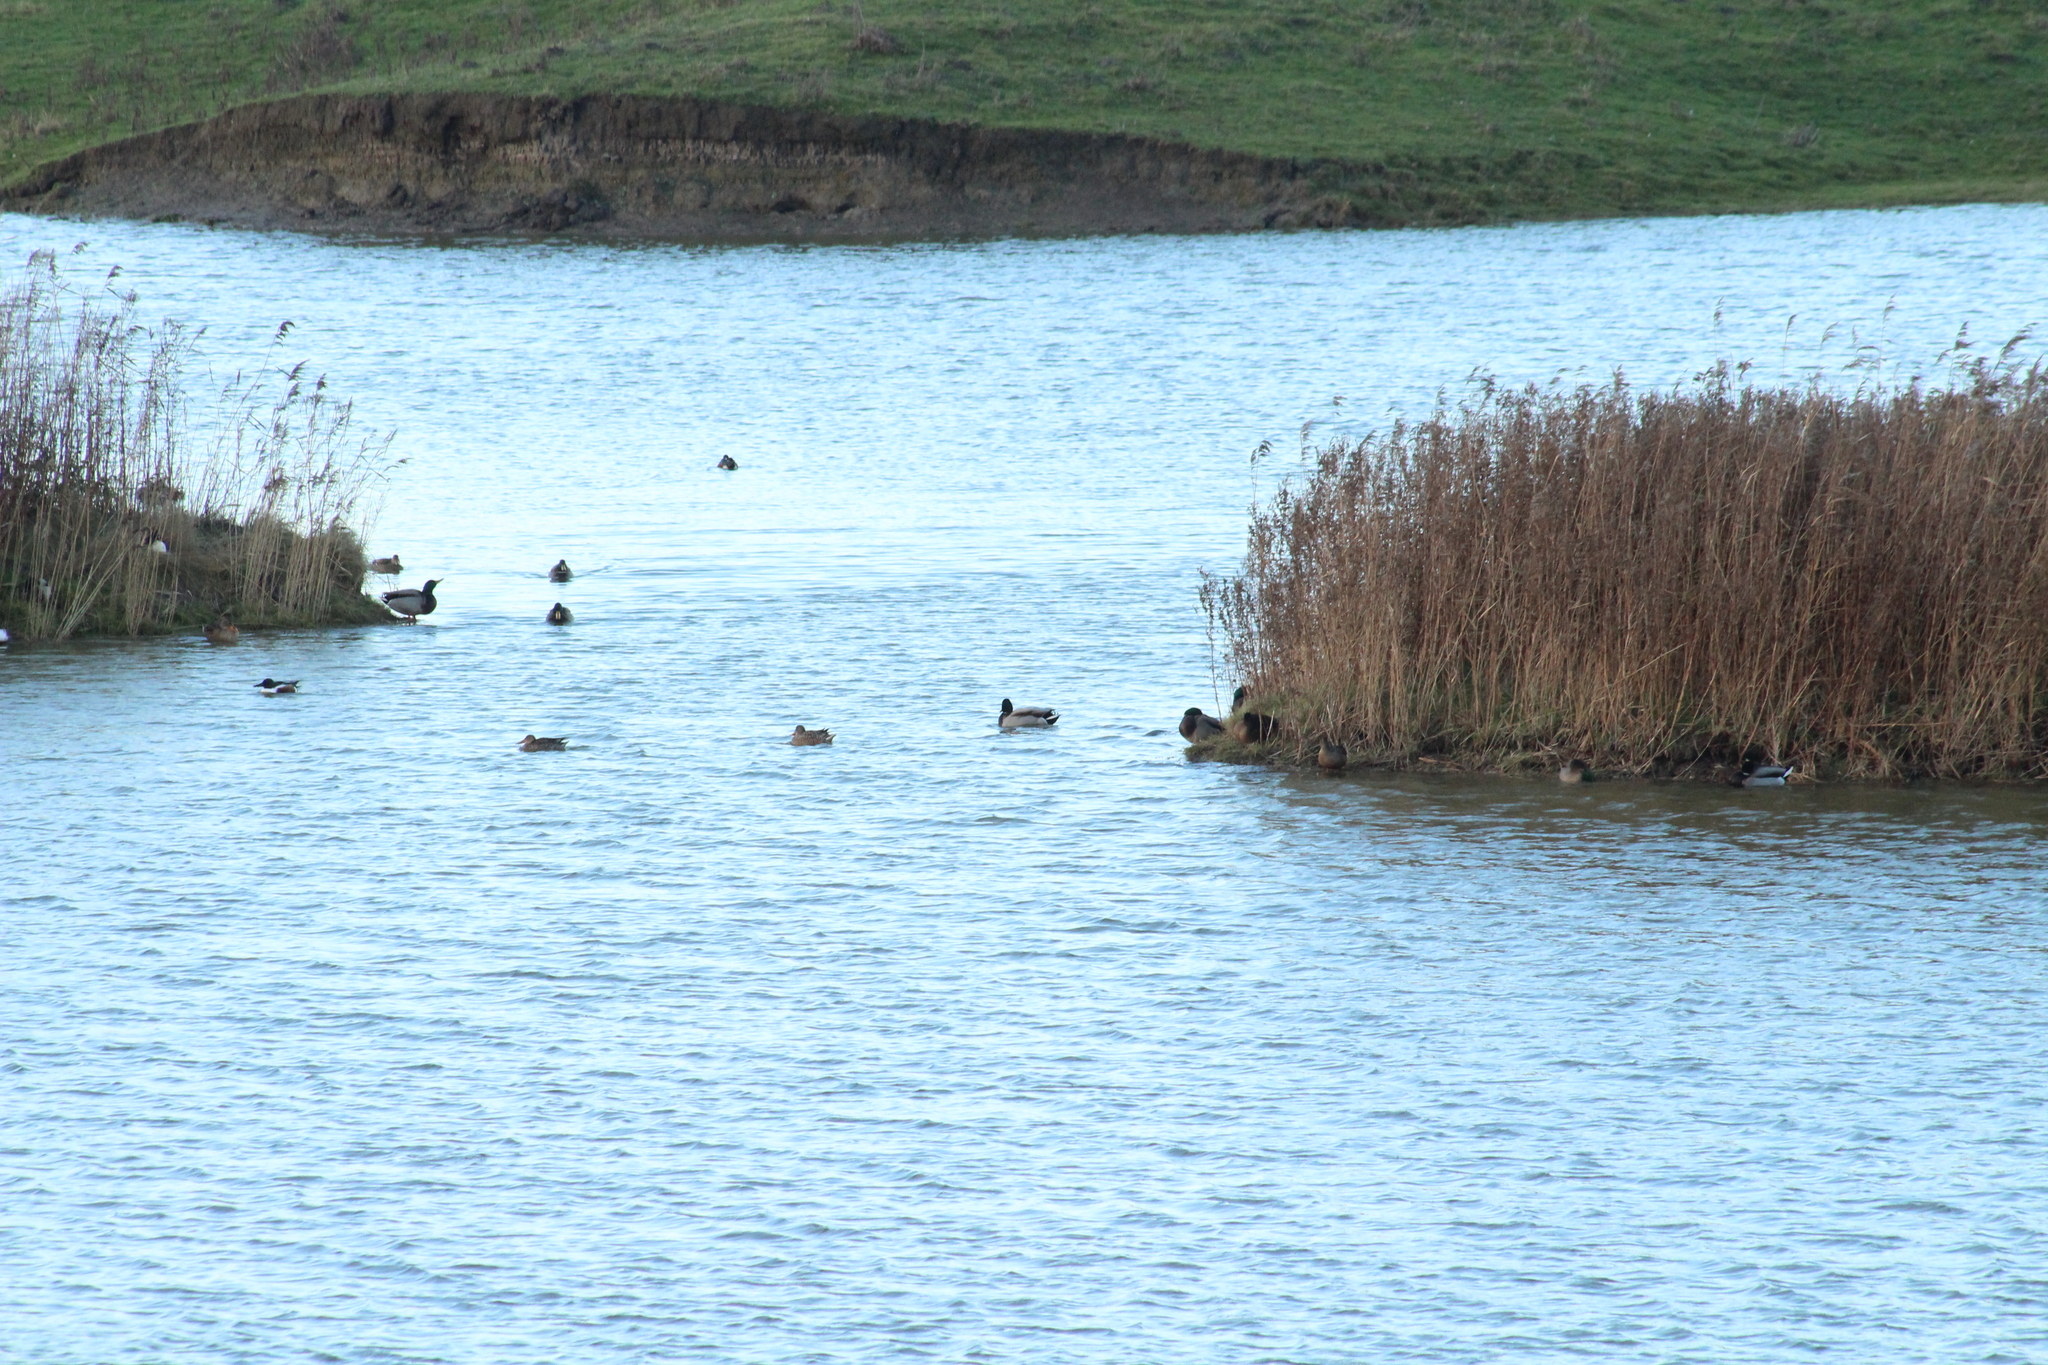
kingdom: Animalia
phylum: Chordata
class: Aves
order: Anseriformes
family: Anatidae
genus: Anas
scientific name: Anas platyrhynchos
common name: Mallard
